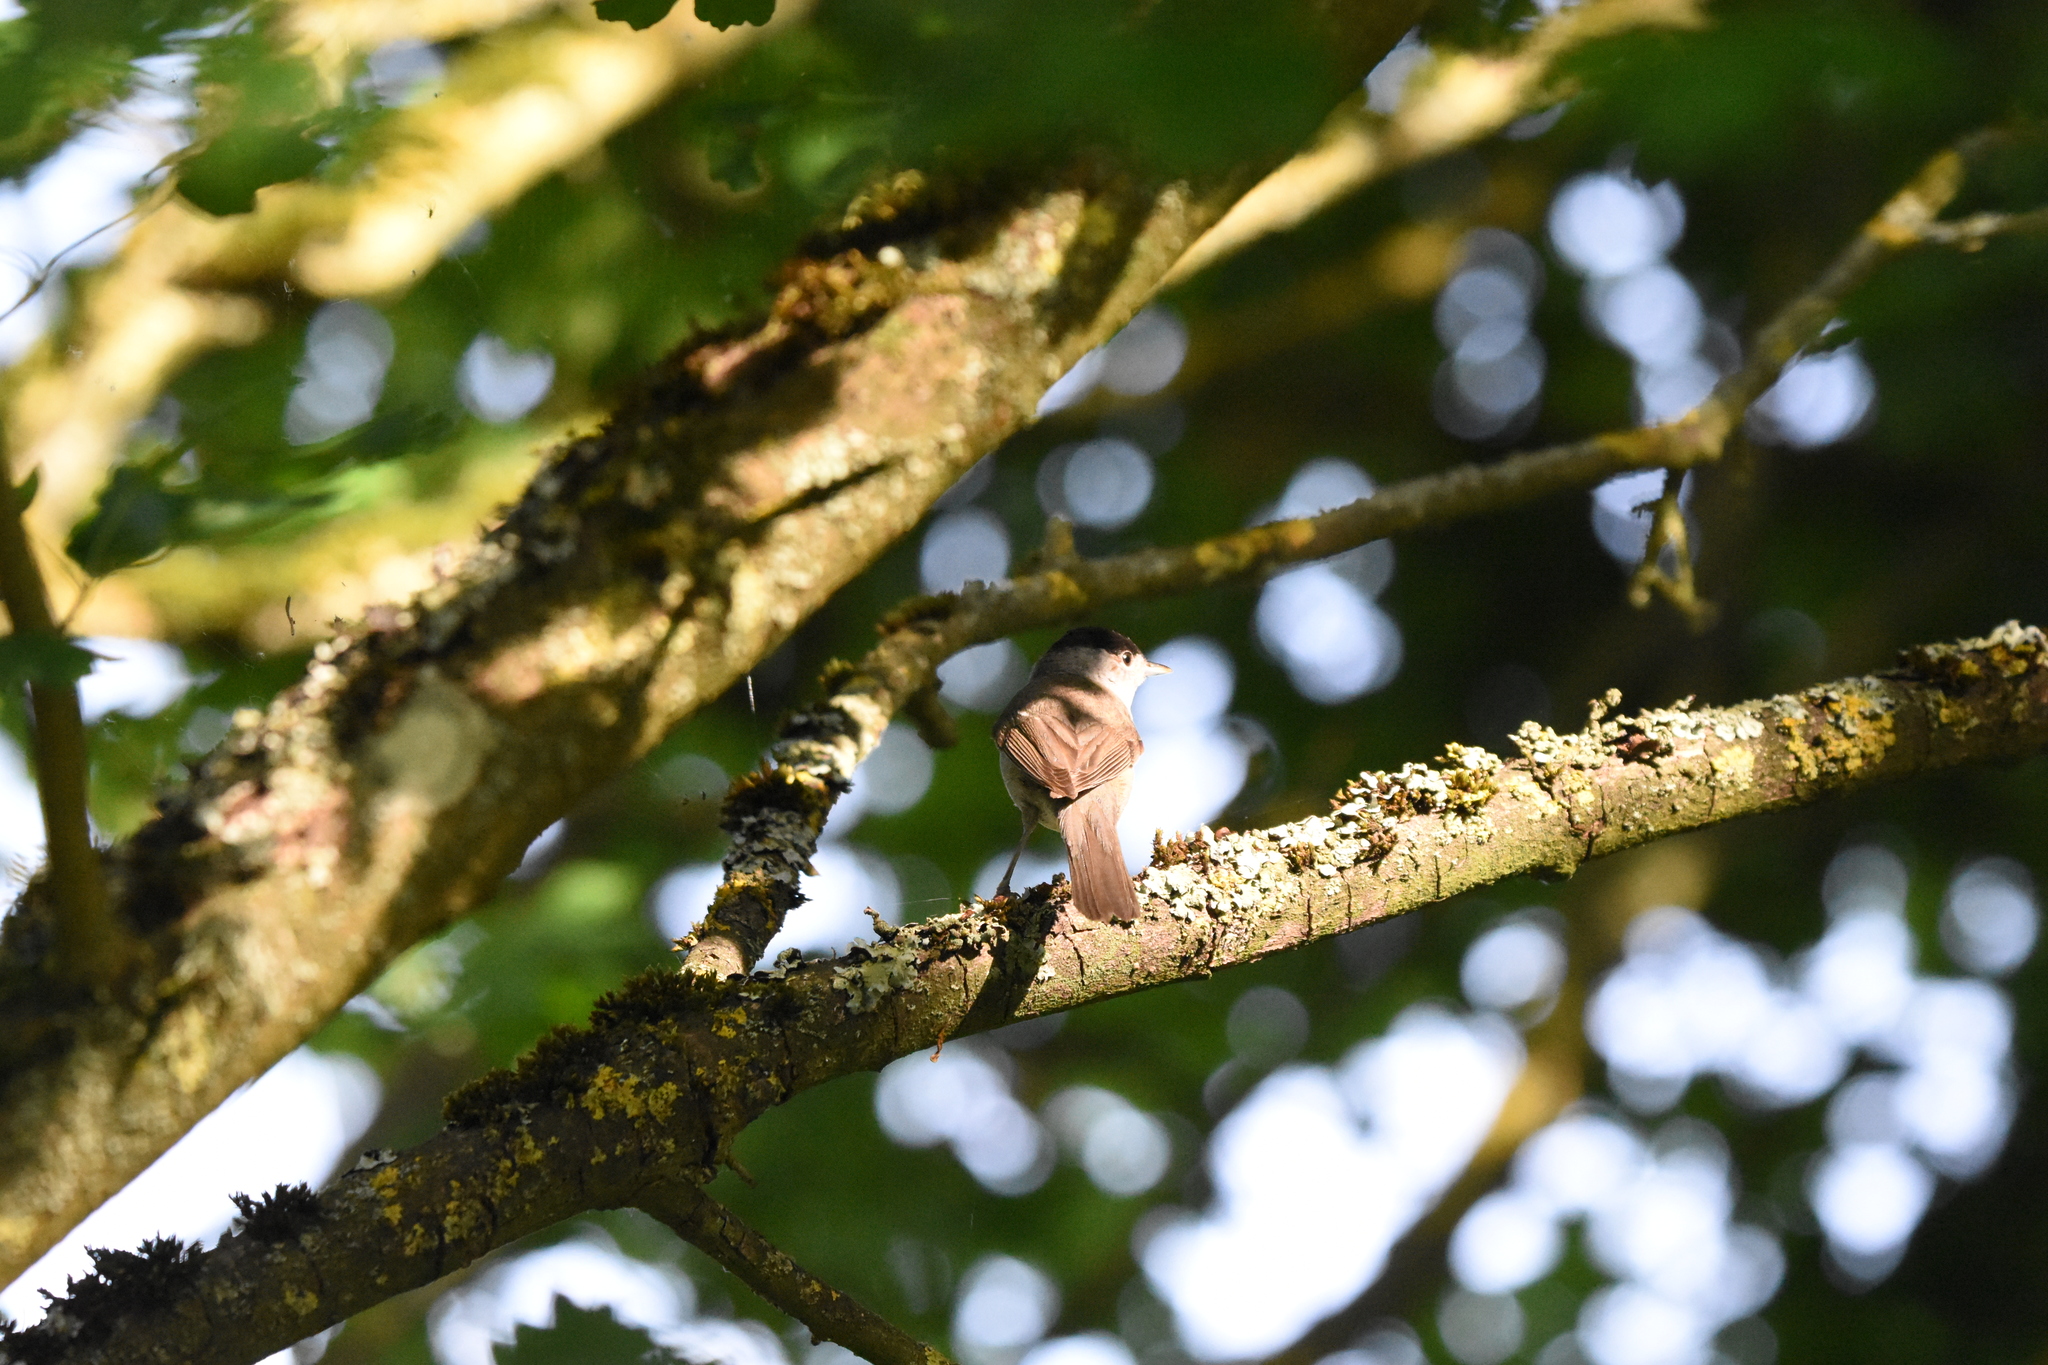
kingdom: Animalia
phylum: Chordata
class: Aves
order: Passeriformes
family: Sylviidae
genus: Sylvia
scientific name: Sylvia atricapilla
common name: Eurasian blackcap
